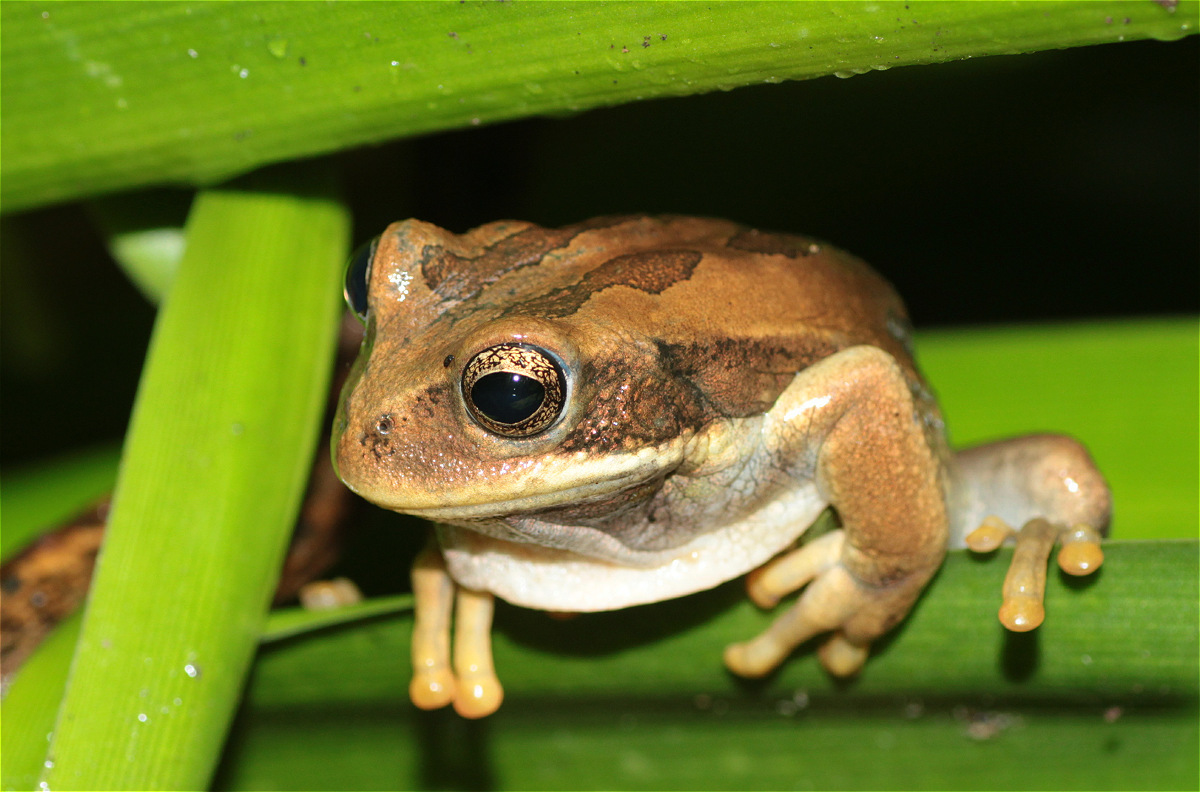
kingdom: Animalia
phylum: Chordata
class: Amphibia
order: Anura
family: Hemiphractidae
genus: Gastrotheca
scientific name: Gastrotheca cuencana
